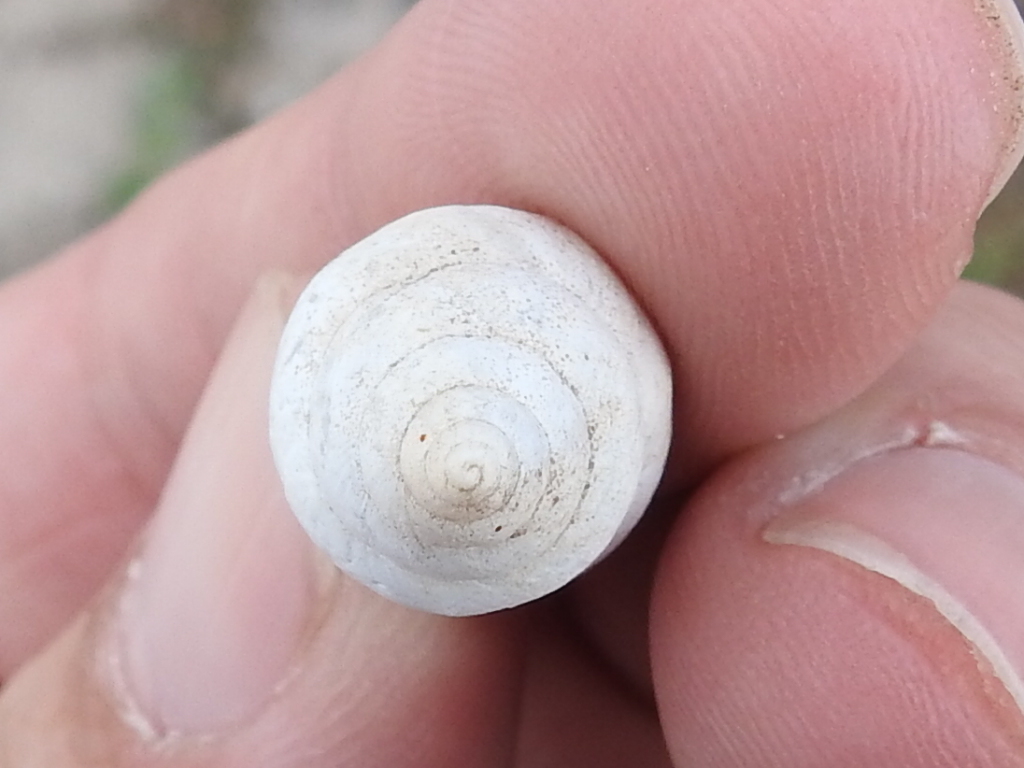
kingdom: Animalia
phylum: Mollusca
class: Gastropoda
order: Stylommatophora
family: Bulimulidae
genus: Rabdotus
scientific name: Rabdotus alternatus
